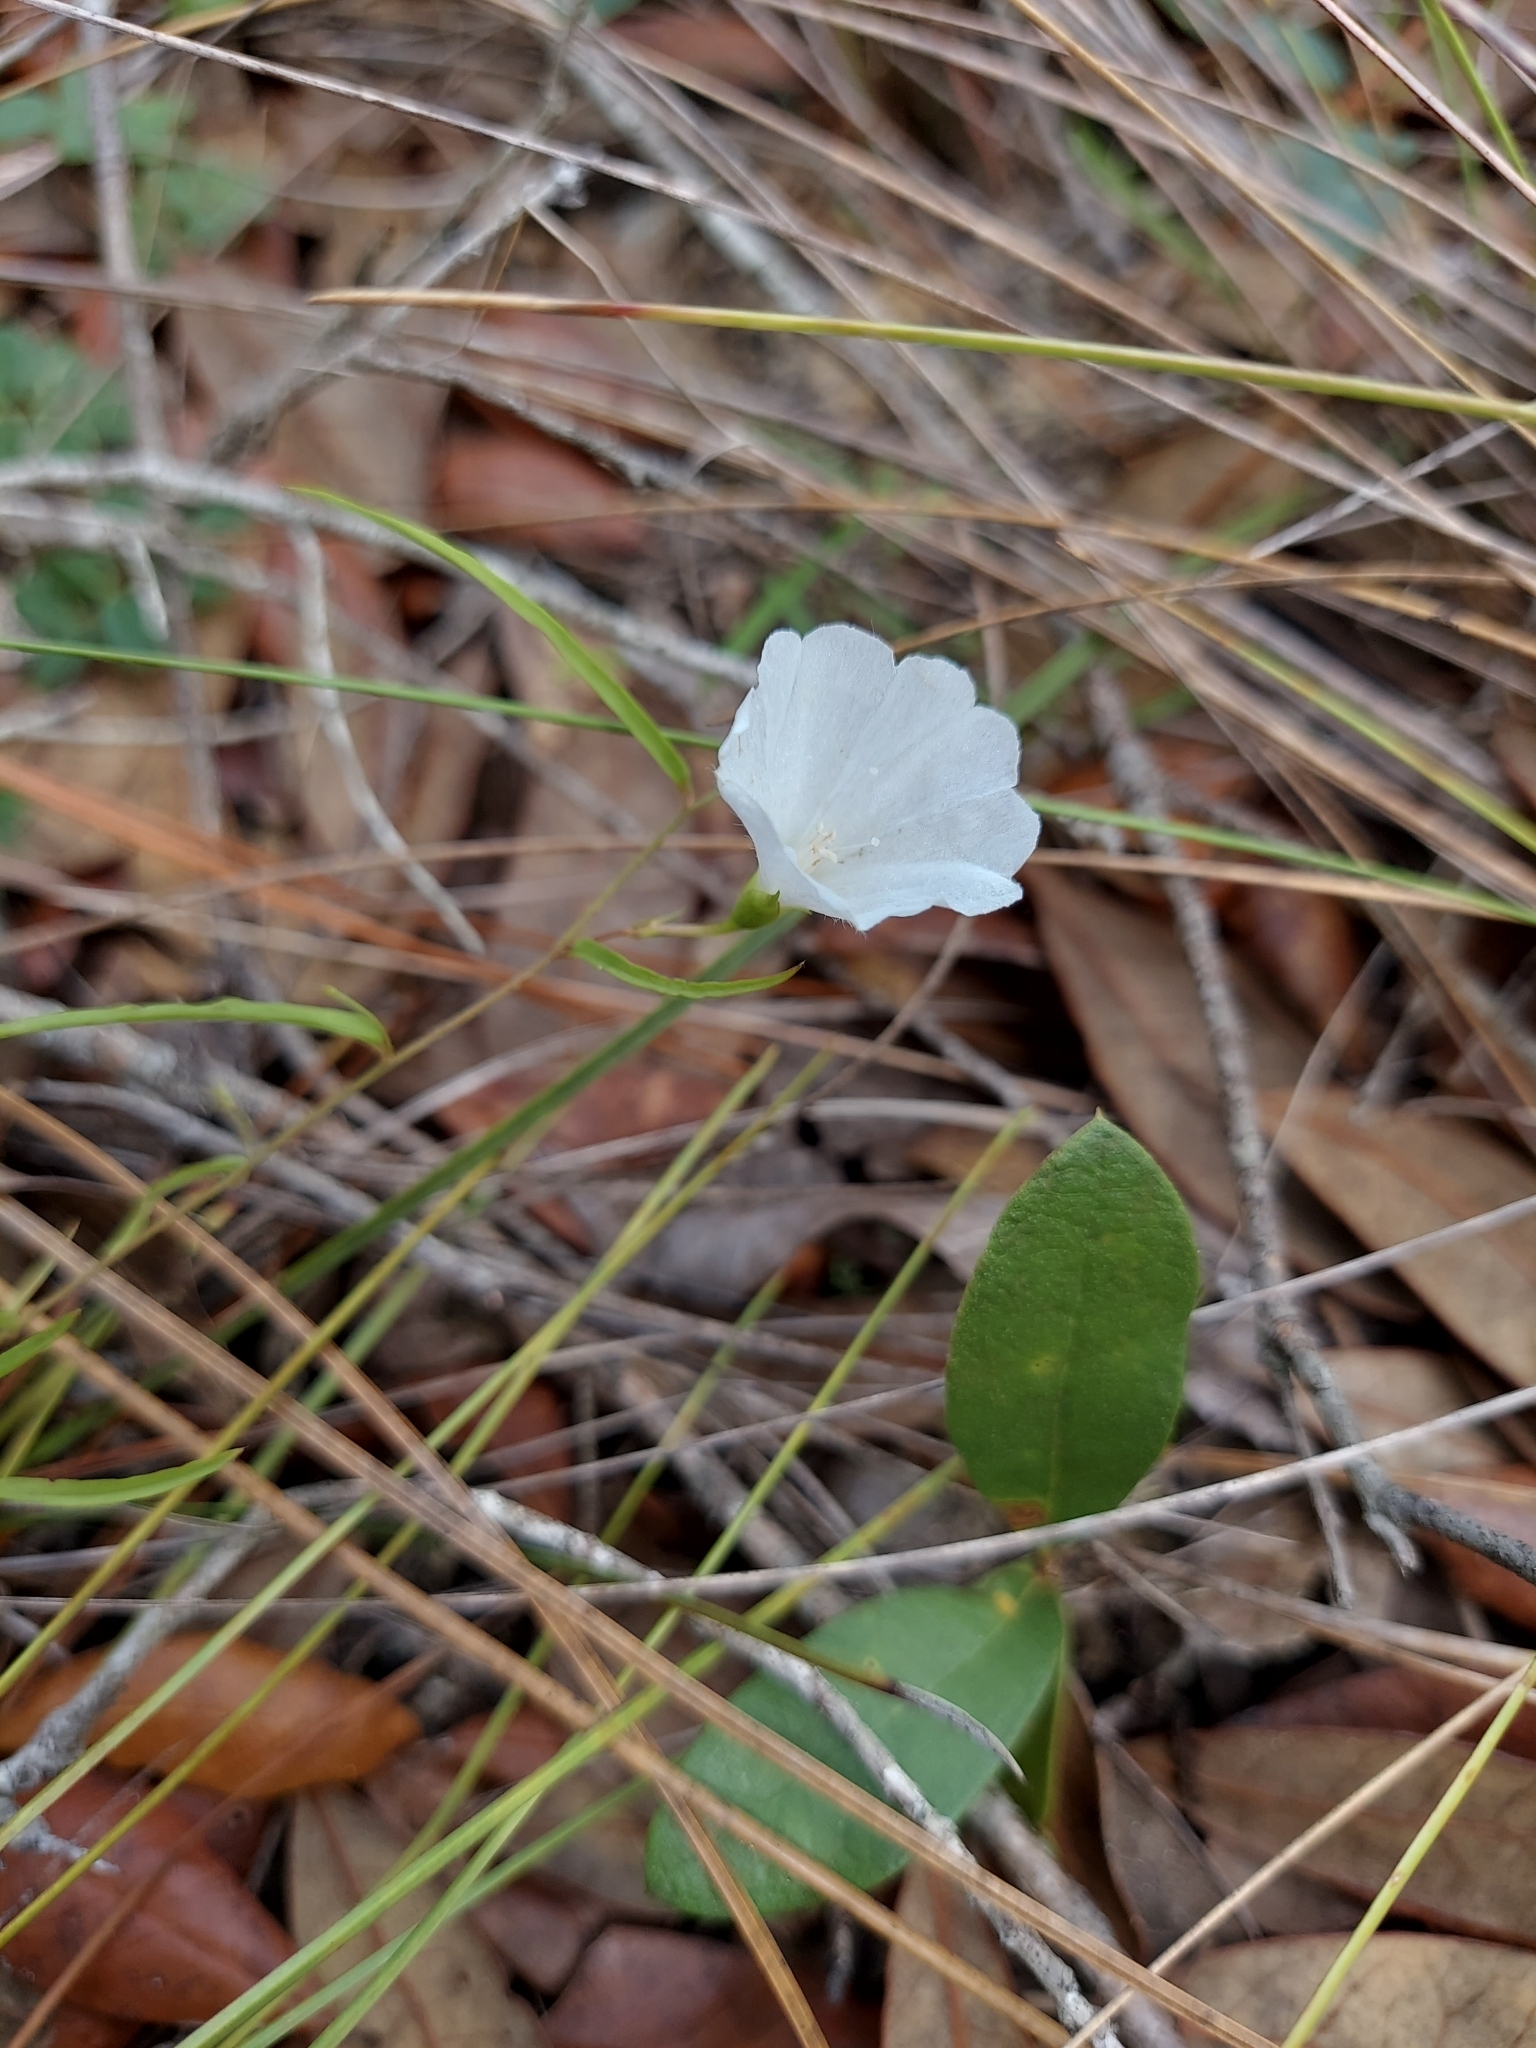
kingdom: Plantae
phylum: Tracheophyta
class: Magnoliopsida
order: Solanales
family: Convolvulaceae
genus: Stylisma
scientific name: Stylisma patens
